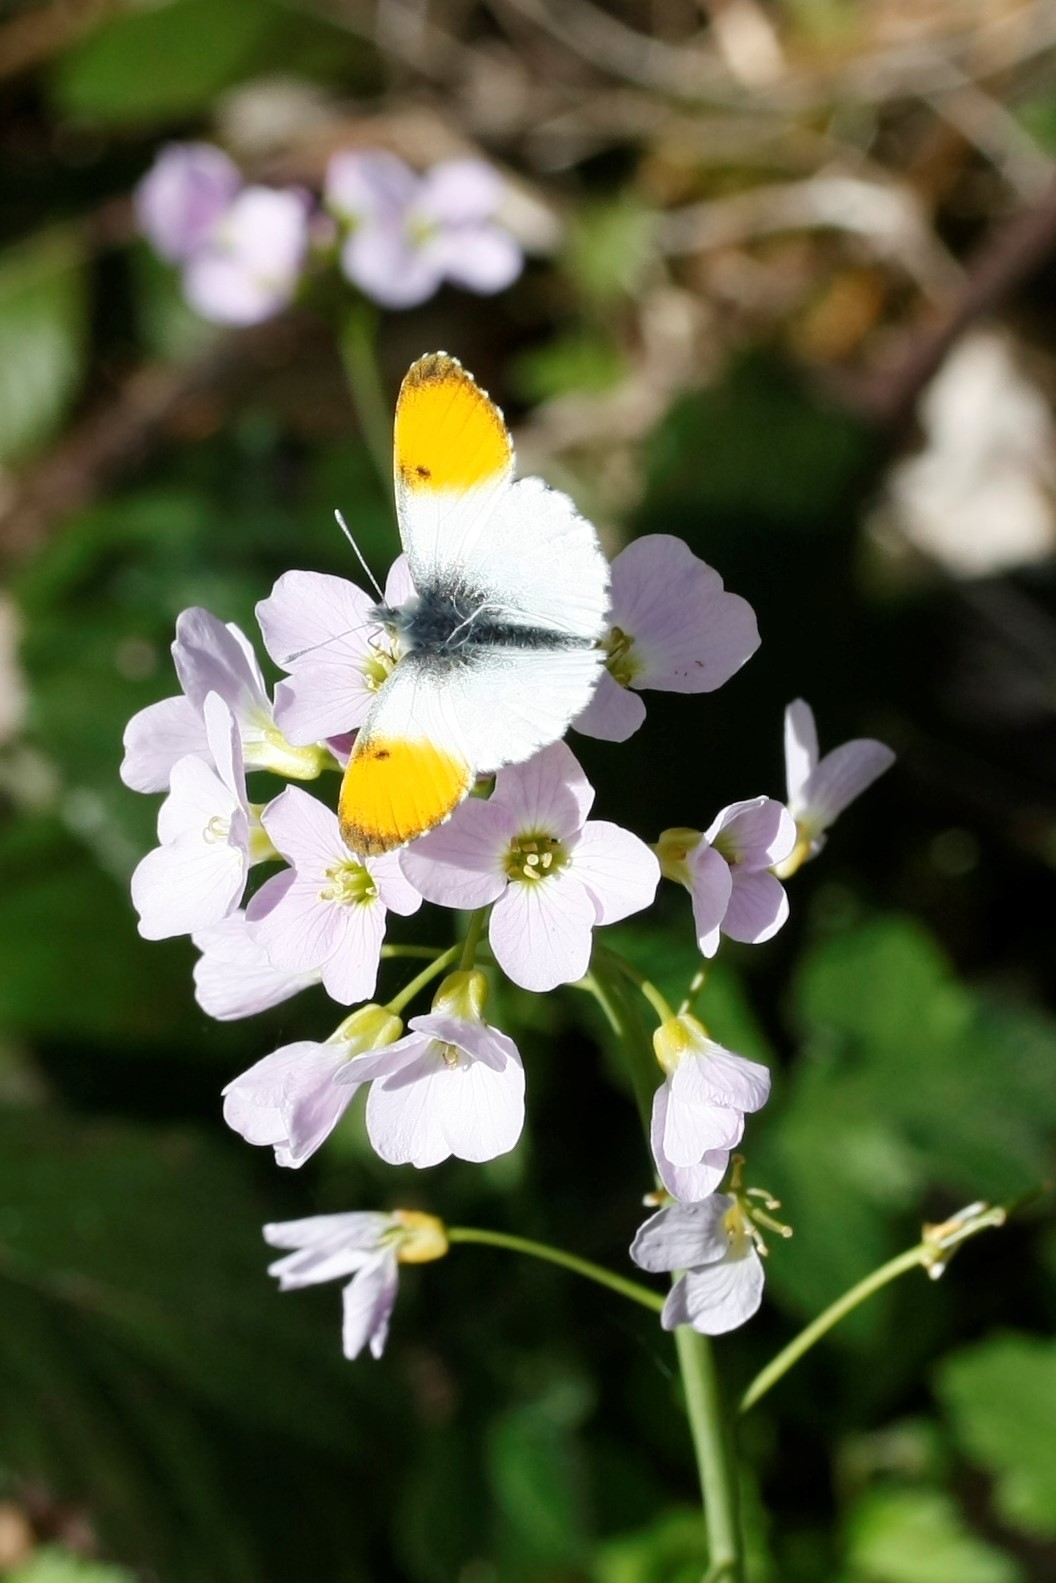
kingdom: Animalia
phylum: Arthropoda
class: Insecta
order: Lepidoptera
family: Pieridae
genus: Anthocharis
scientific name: Anthocharis cardamines
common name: Orange-tip
